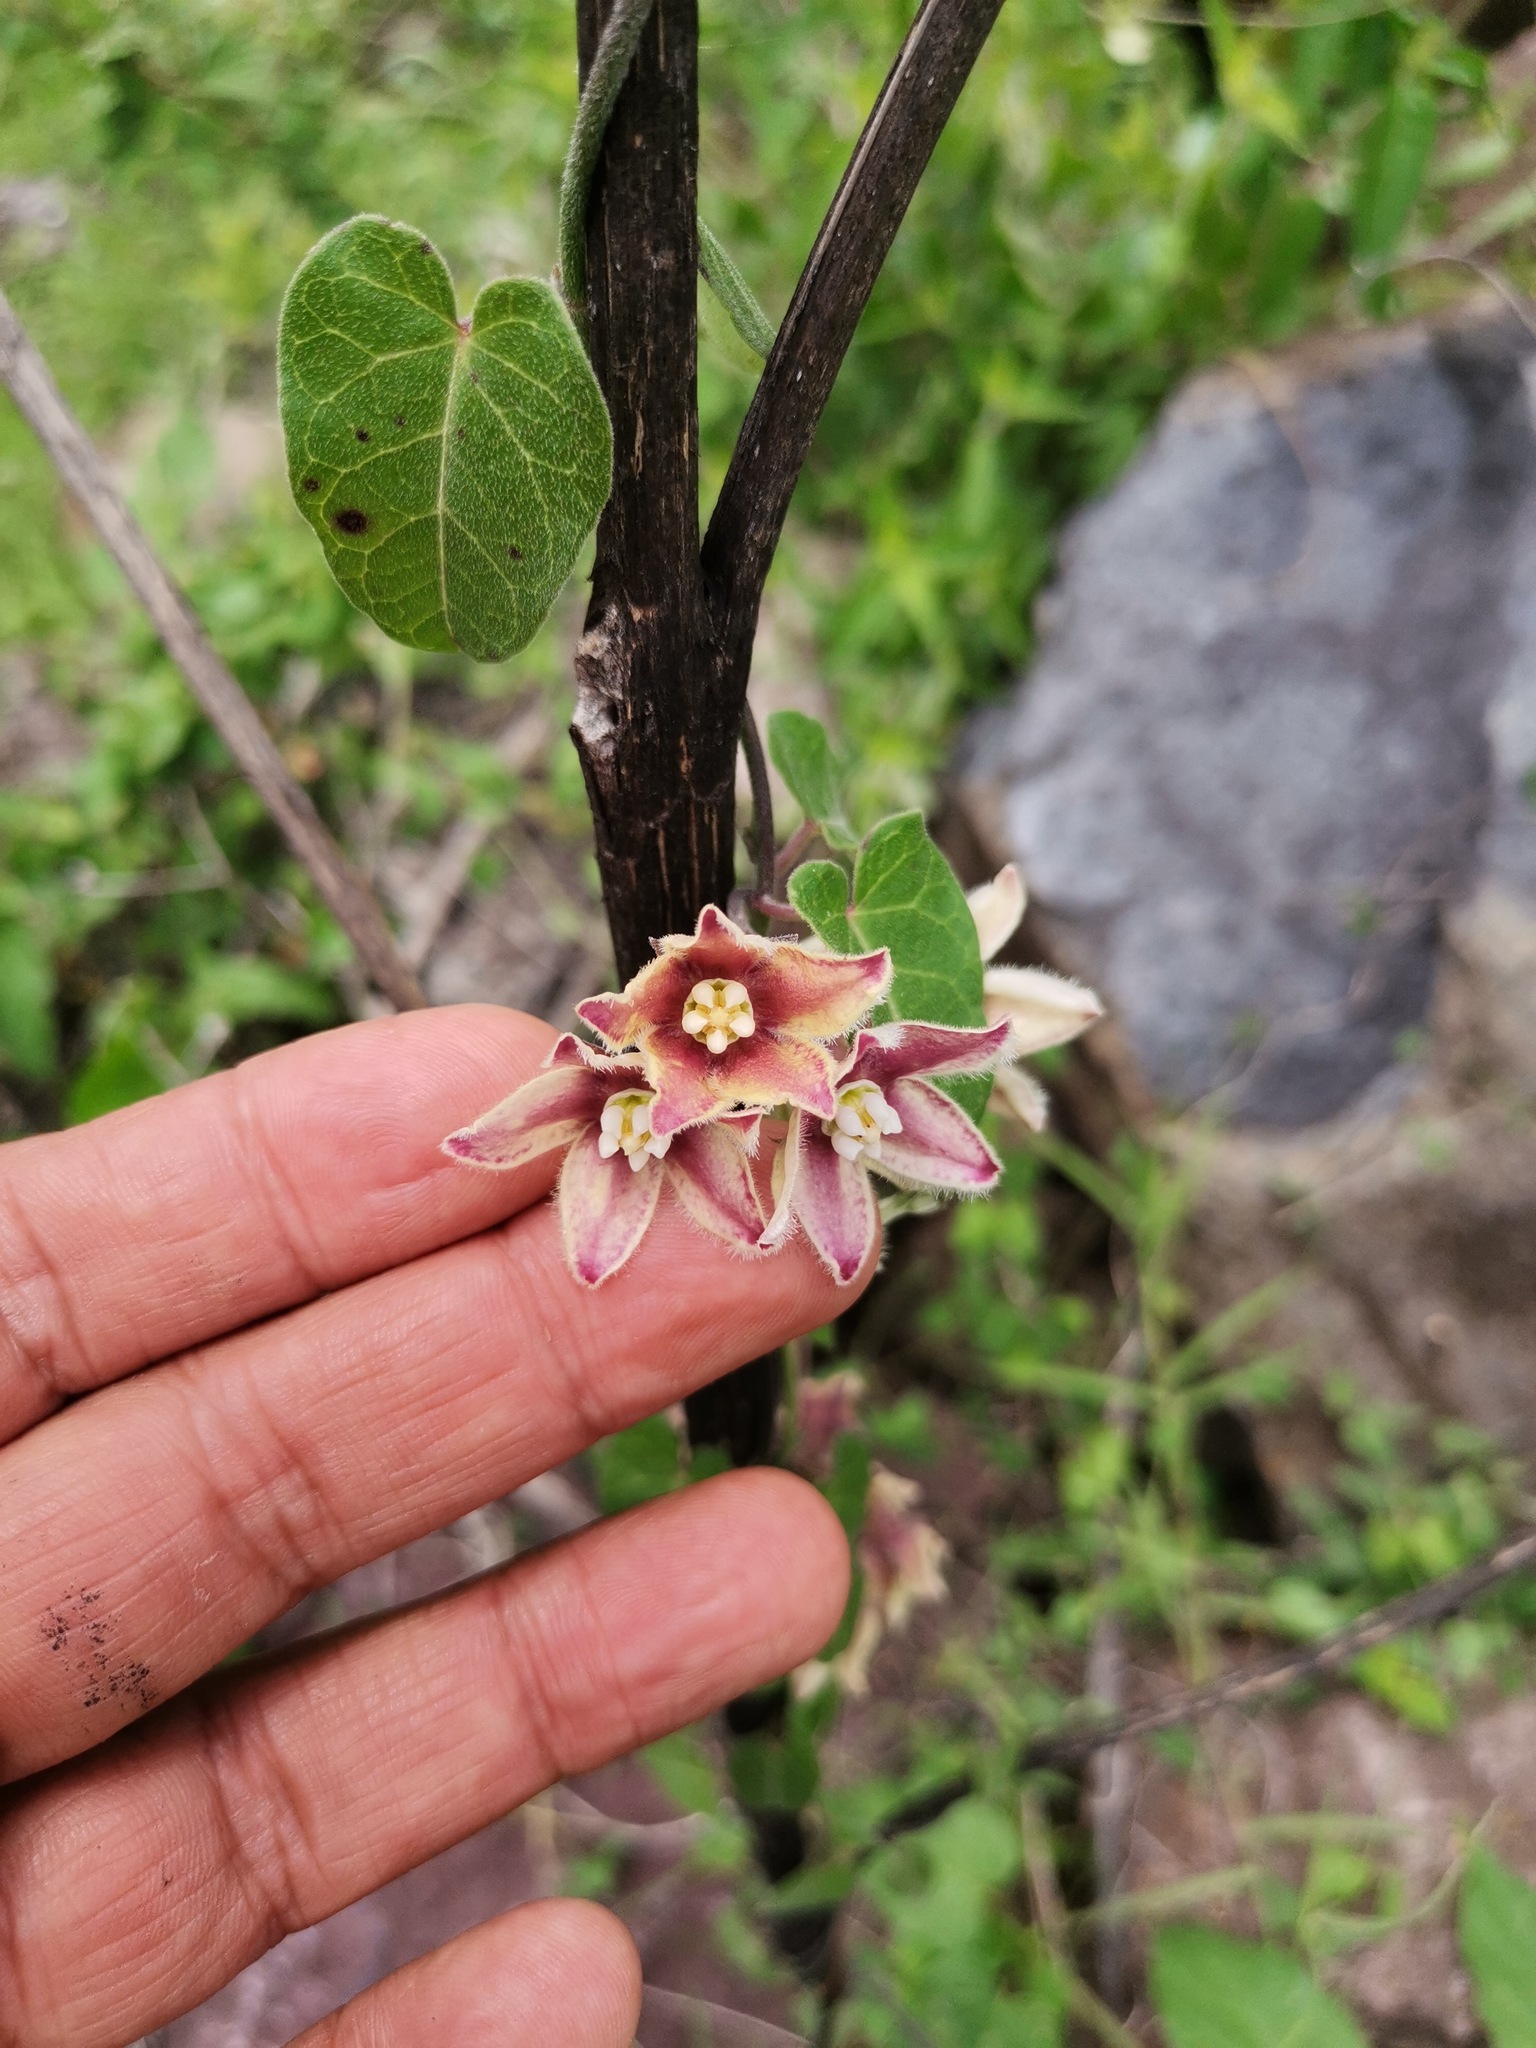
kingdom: Plantae
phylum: Tracheophyta
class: Magnoliopsida
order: Gentianales
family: Apocynaceae
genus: Funastrum
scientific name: Funastrum elegans
